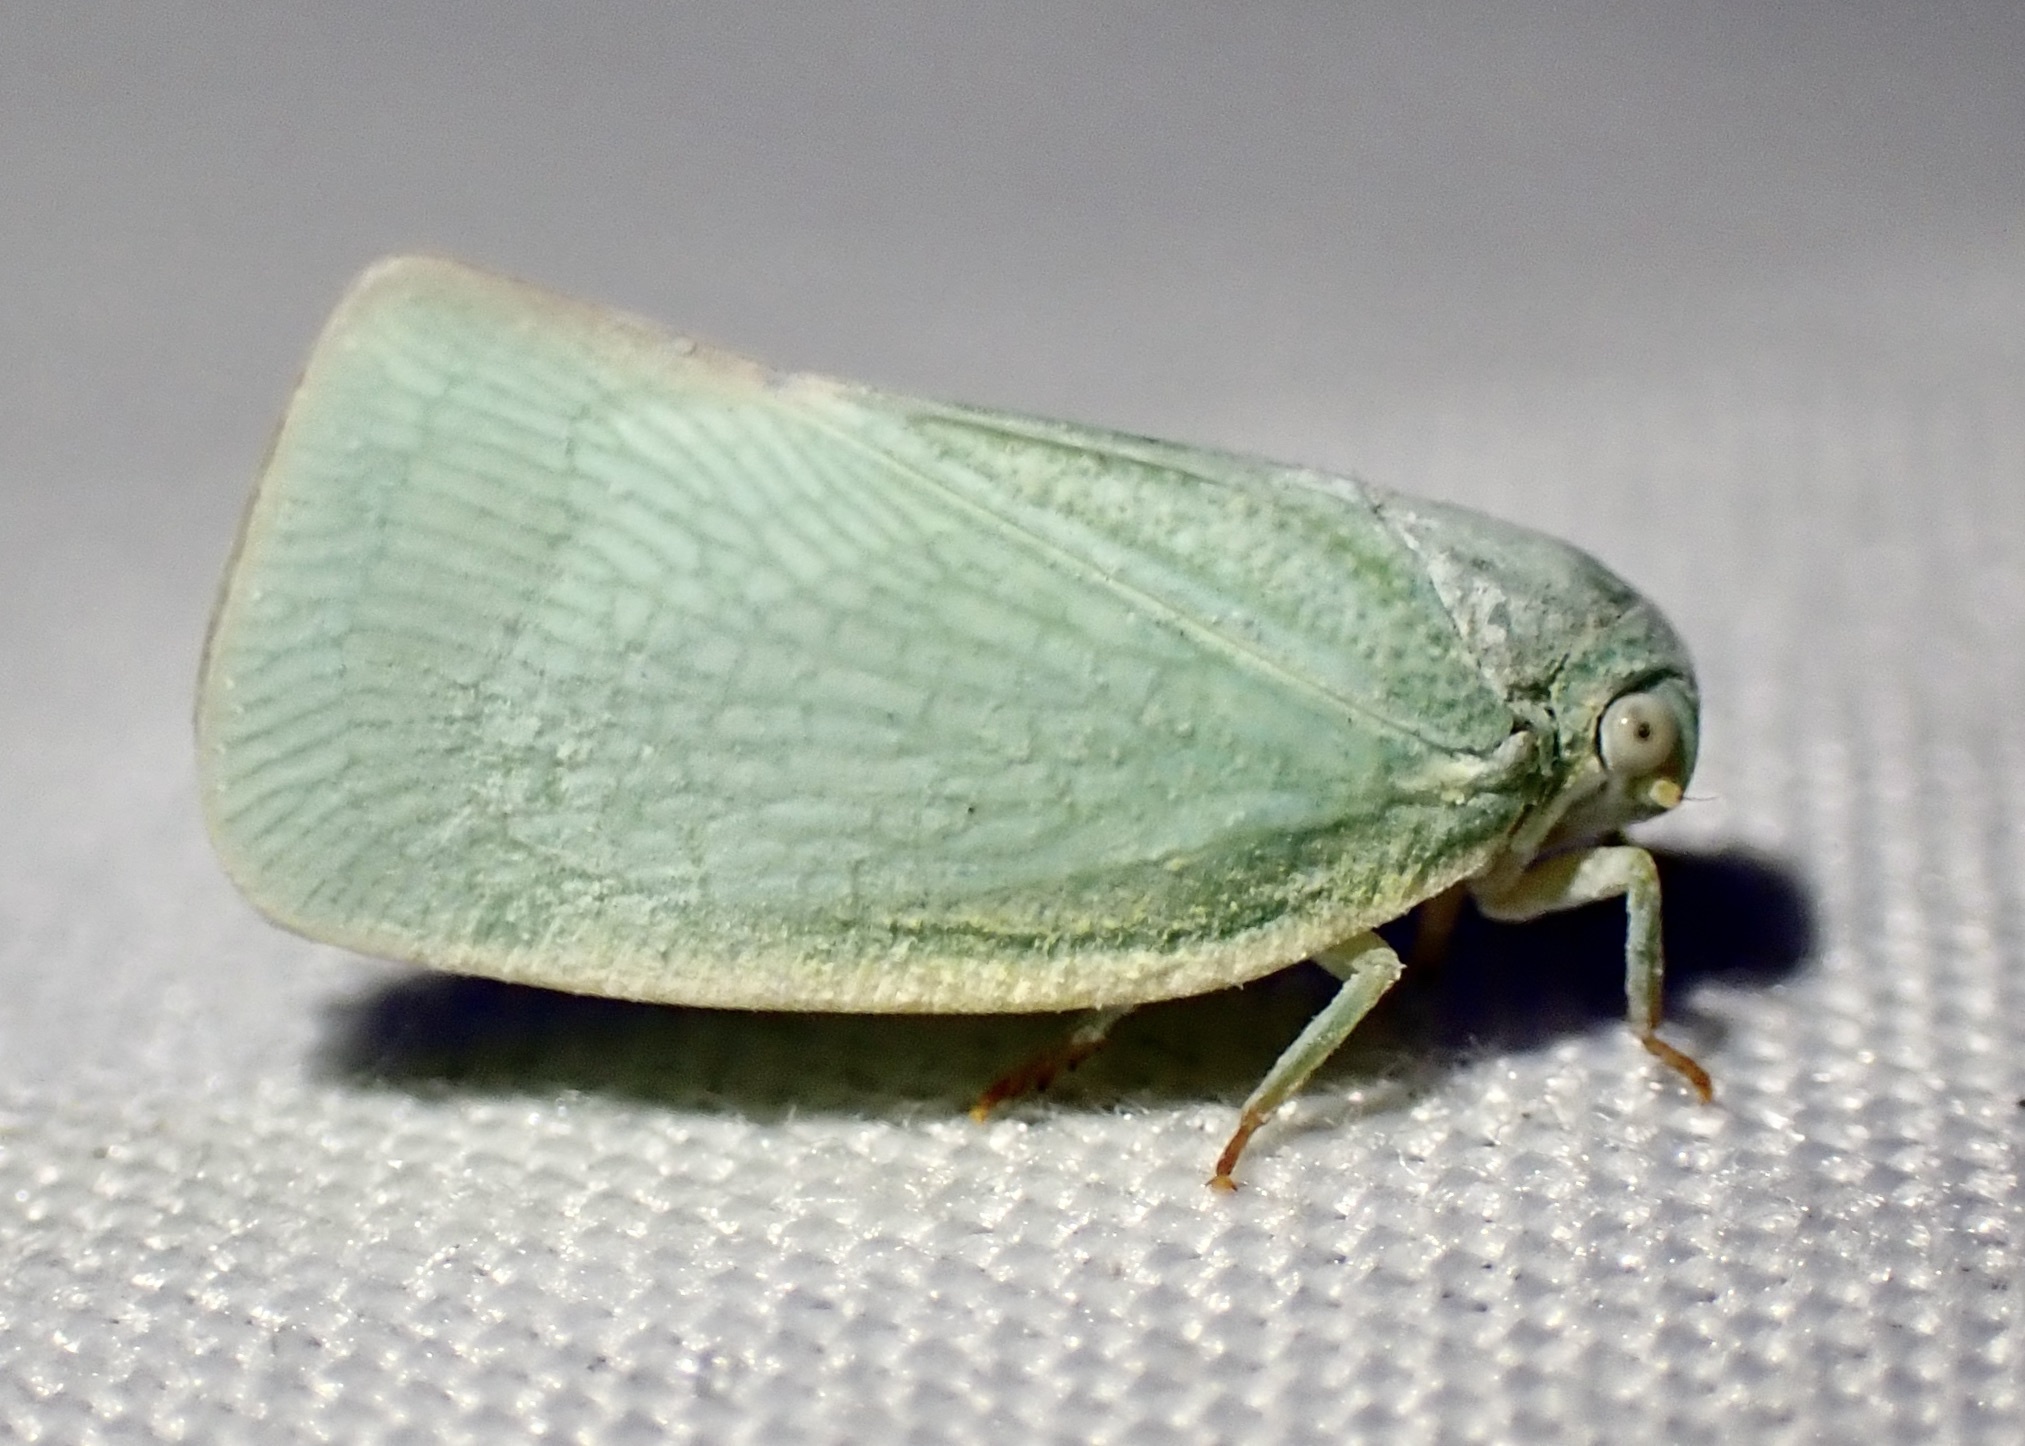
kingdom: Animalia
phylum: Arthropoda
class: Insecta
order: Hemiptera
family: Flatidae
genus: Flatormenis
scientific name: Flatormenis proxima
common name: Northern flatid planthopper
